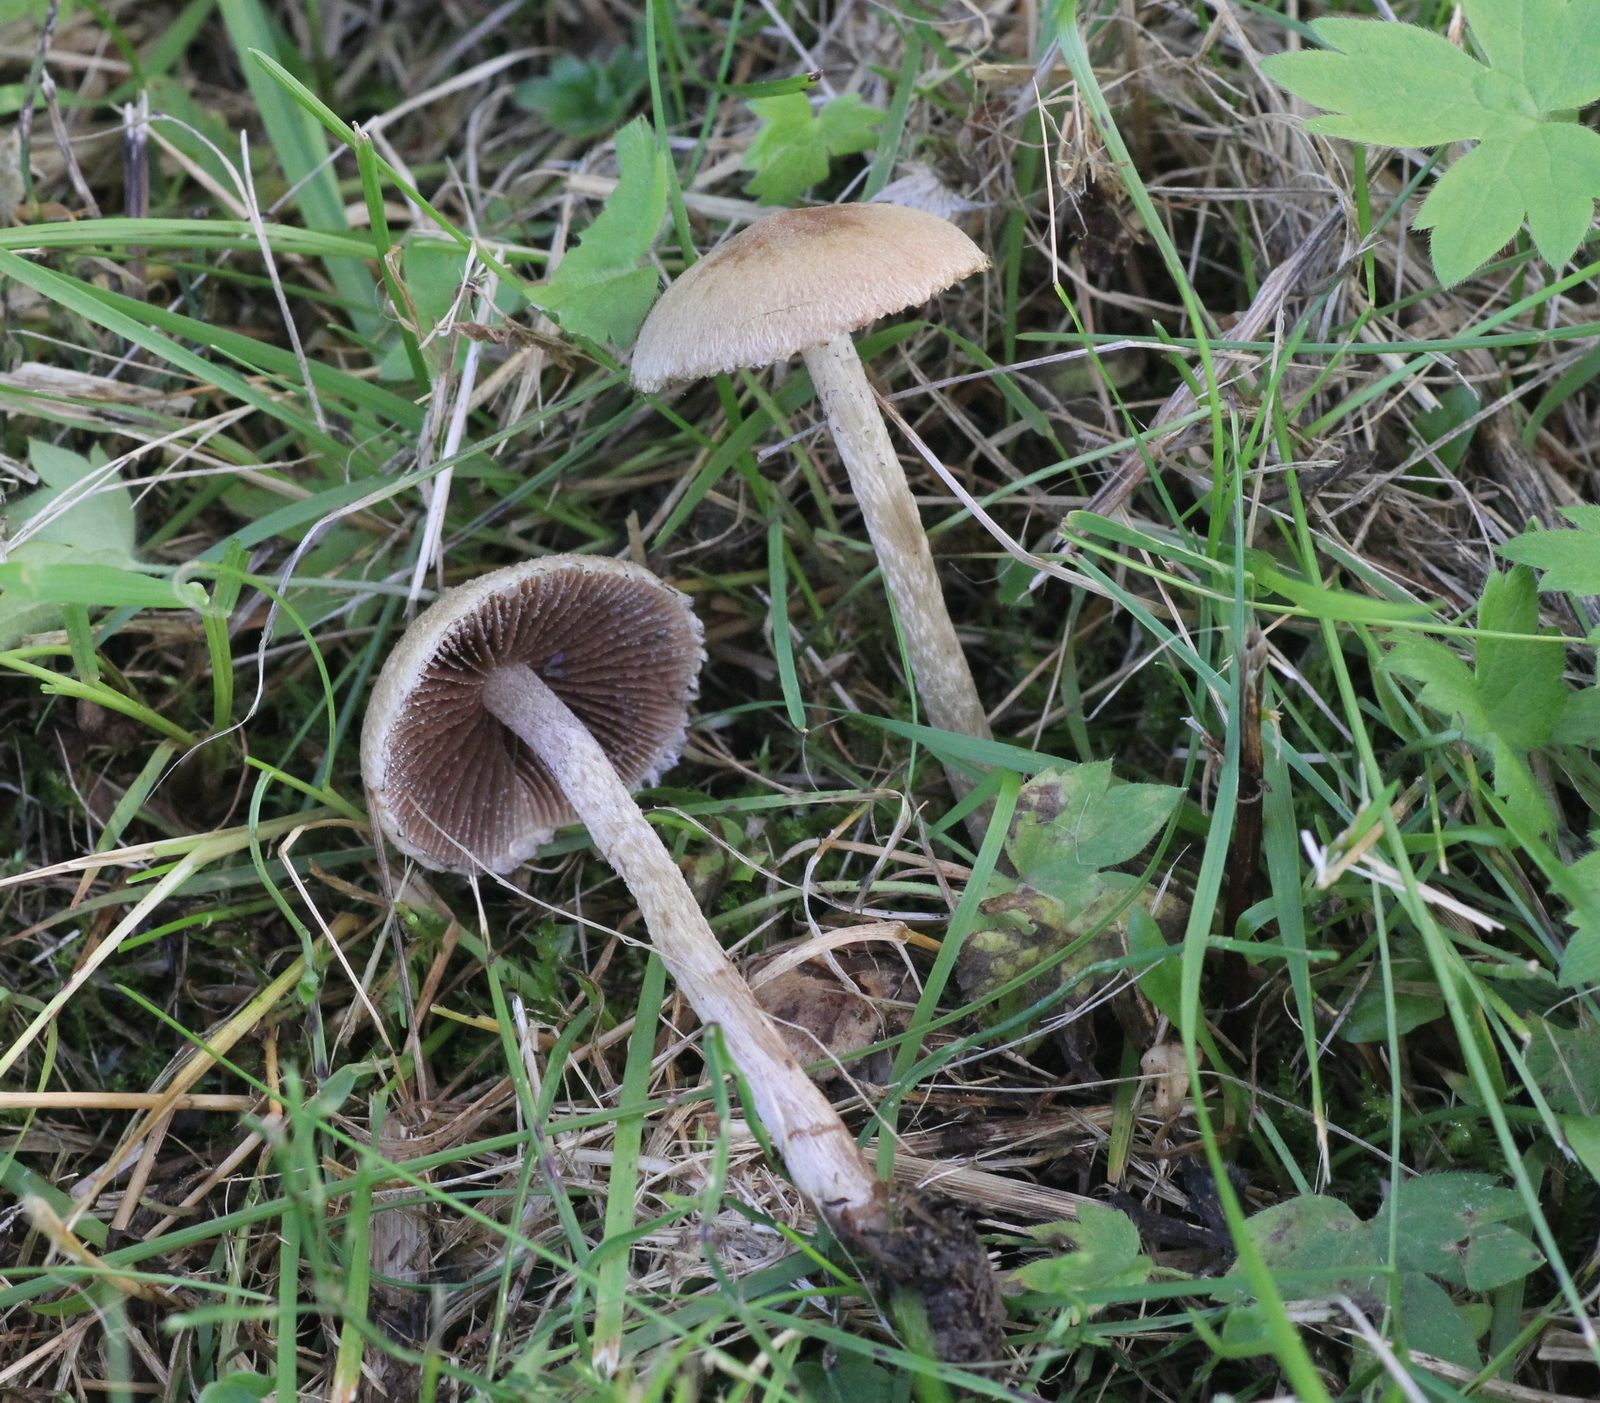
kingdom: Fungi
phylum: Basidiomycota
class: Agaricomycetes
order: Agaricales
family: Psathyrellaceae
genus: Lacrymaria
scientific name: Lacrymaria lacrymabunda
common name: Weeping widow
